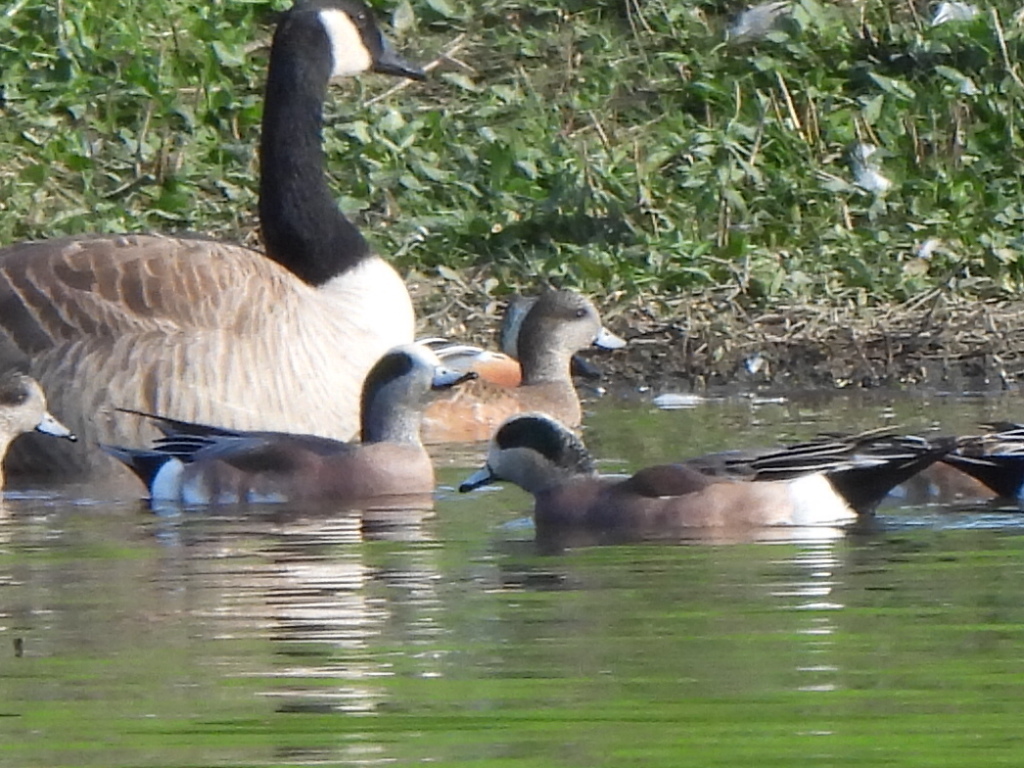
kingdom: Animalia
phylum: Chordata
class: Aves
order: Anseriformes
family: Anatidae
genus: Mareca
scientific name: Mareca americana
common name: American wigeon
